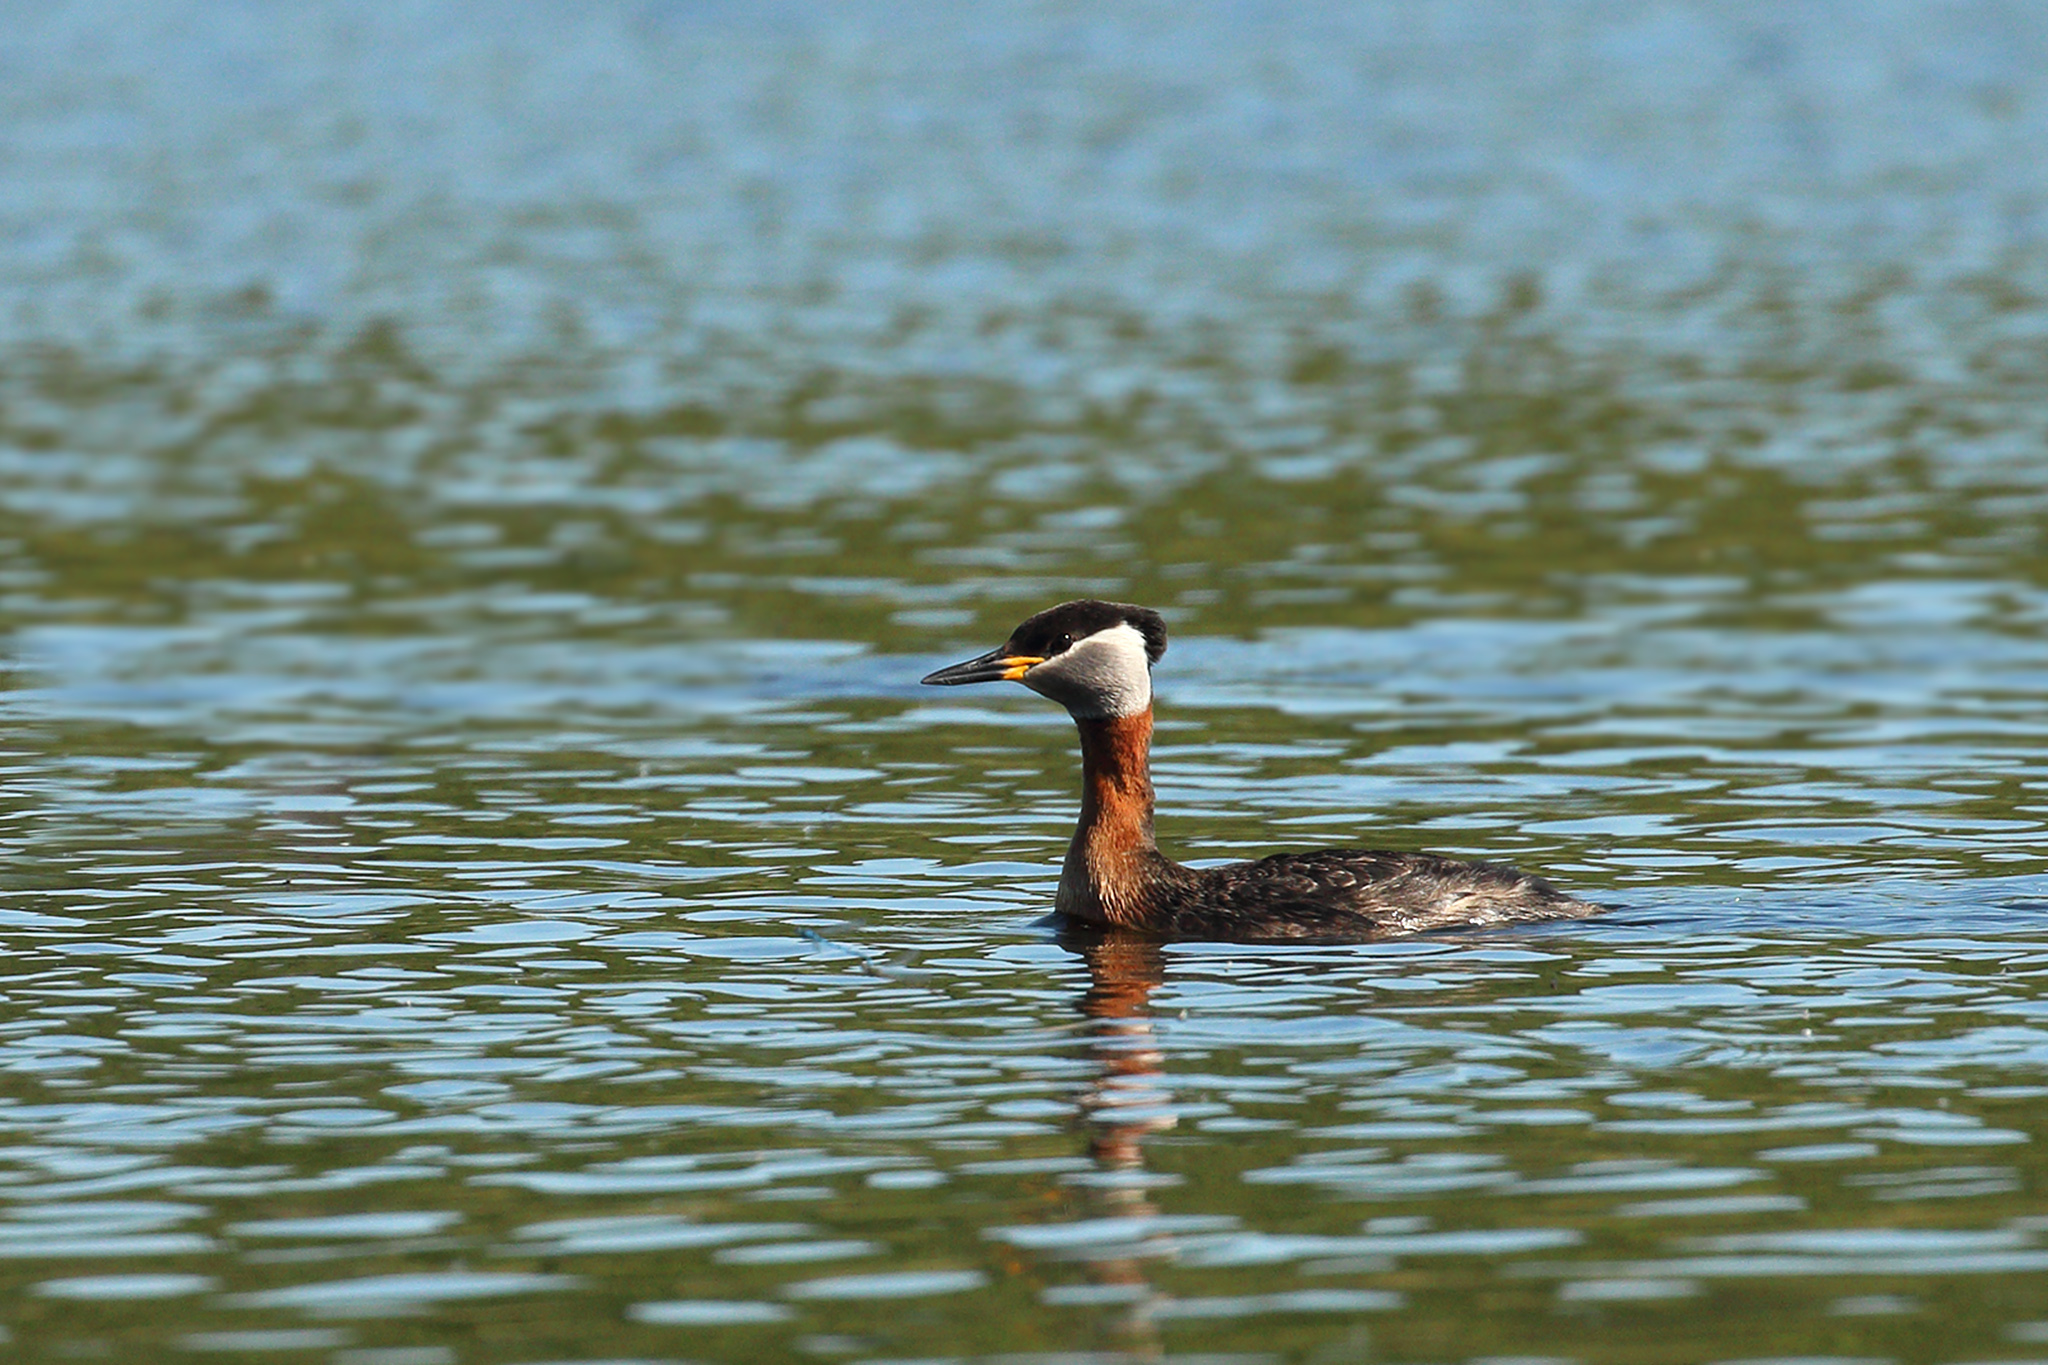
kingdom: Animalia
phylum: Chordata
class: Aves
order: Podicipediformes
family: Podicipedidae
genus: Podiceps
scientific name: Podiceps grisegena
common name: Red-necked grebe
